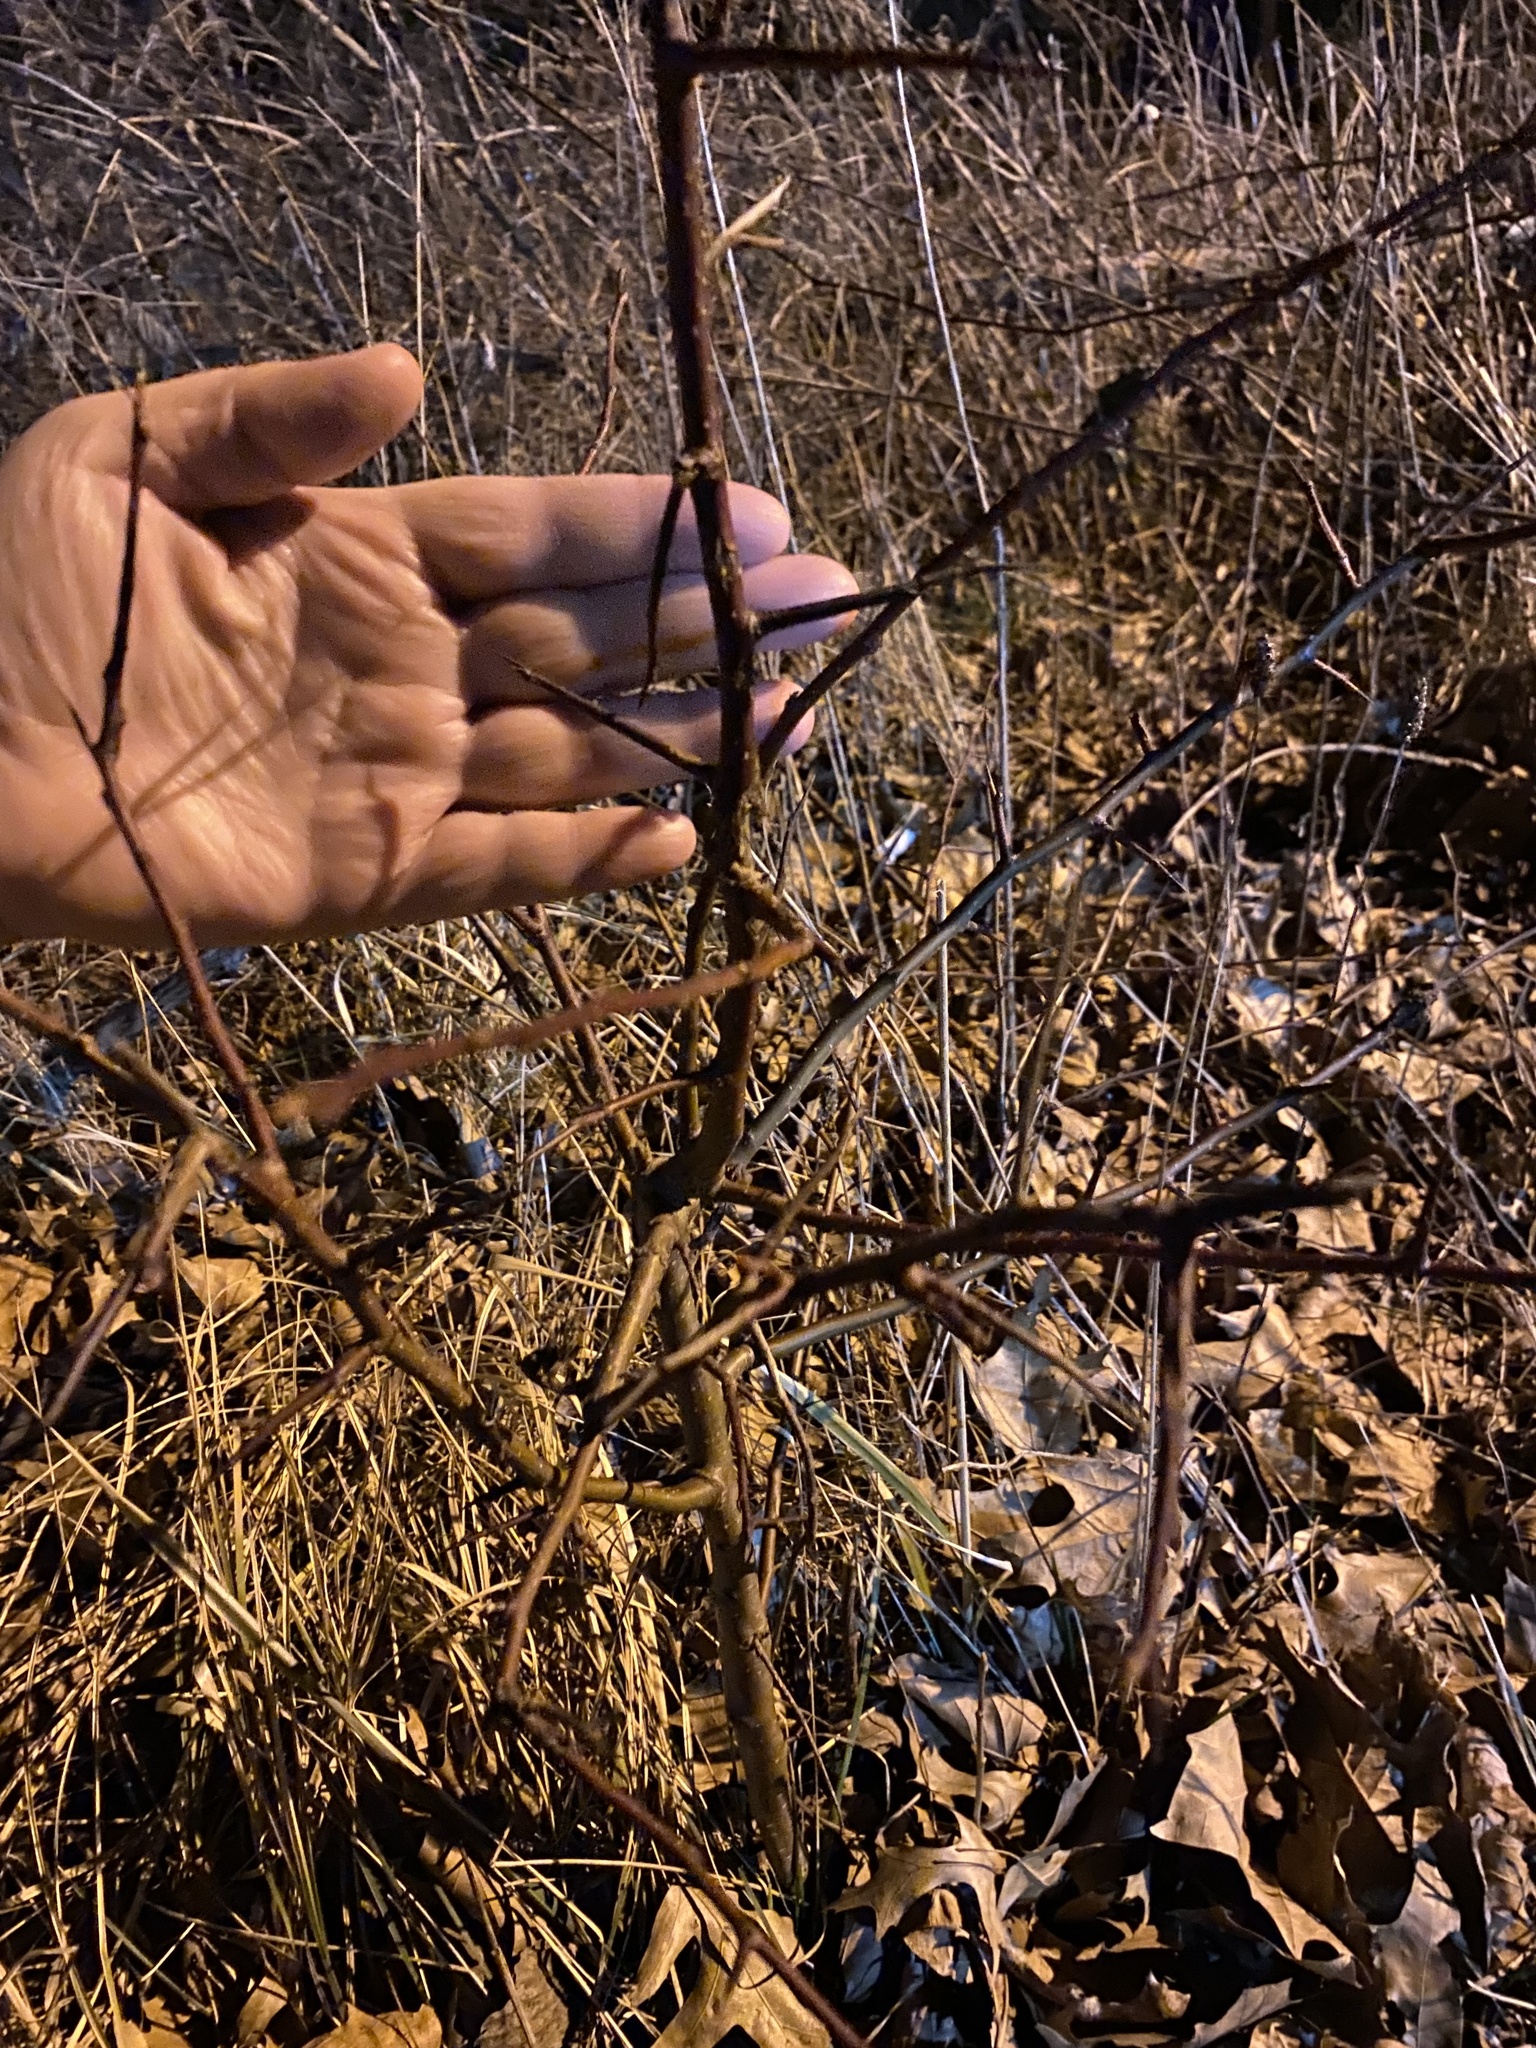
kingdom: Plantae
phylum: Tracheophyta
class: Magnoliopsida
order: Rosales
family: Rosaceae
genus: Pyrus
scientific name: Pyrus calleryana
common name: Callery pear
